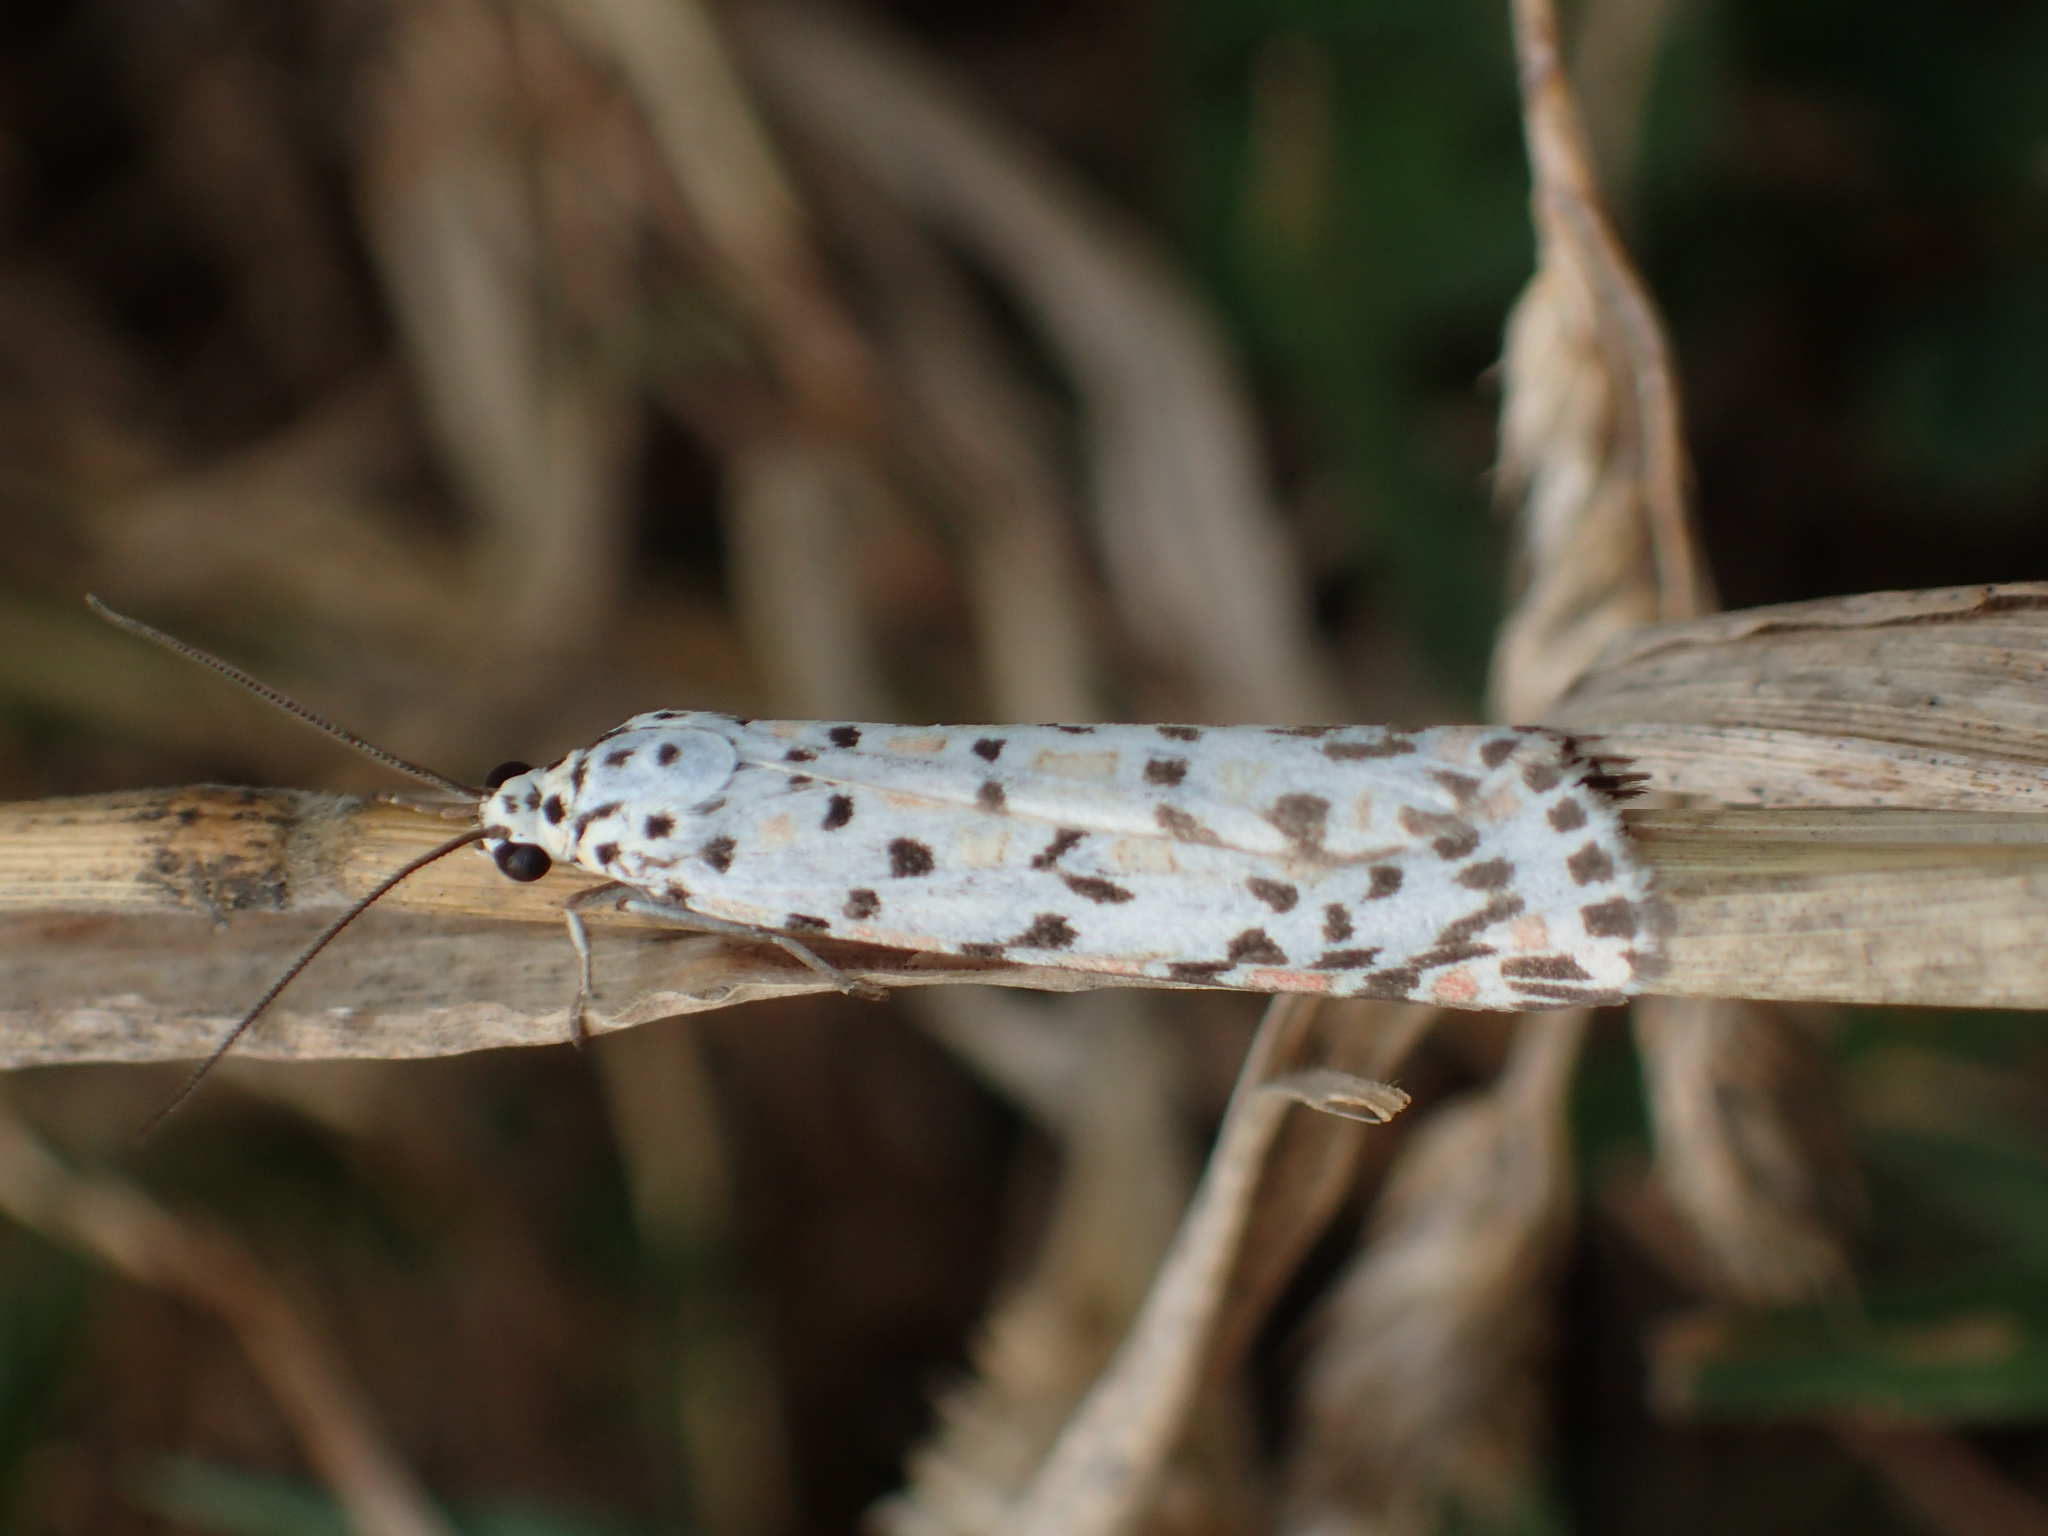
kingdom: Animalia
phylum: Arthropoda
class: Insecta
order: Lepidoptera
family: Erebidae
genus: Utetheisa
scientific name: Utetheisa pulchelloides
